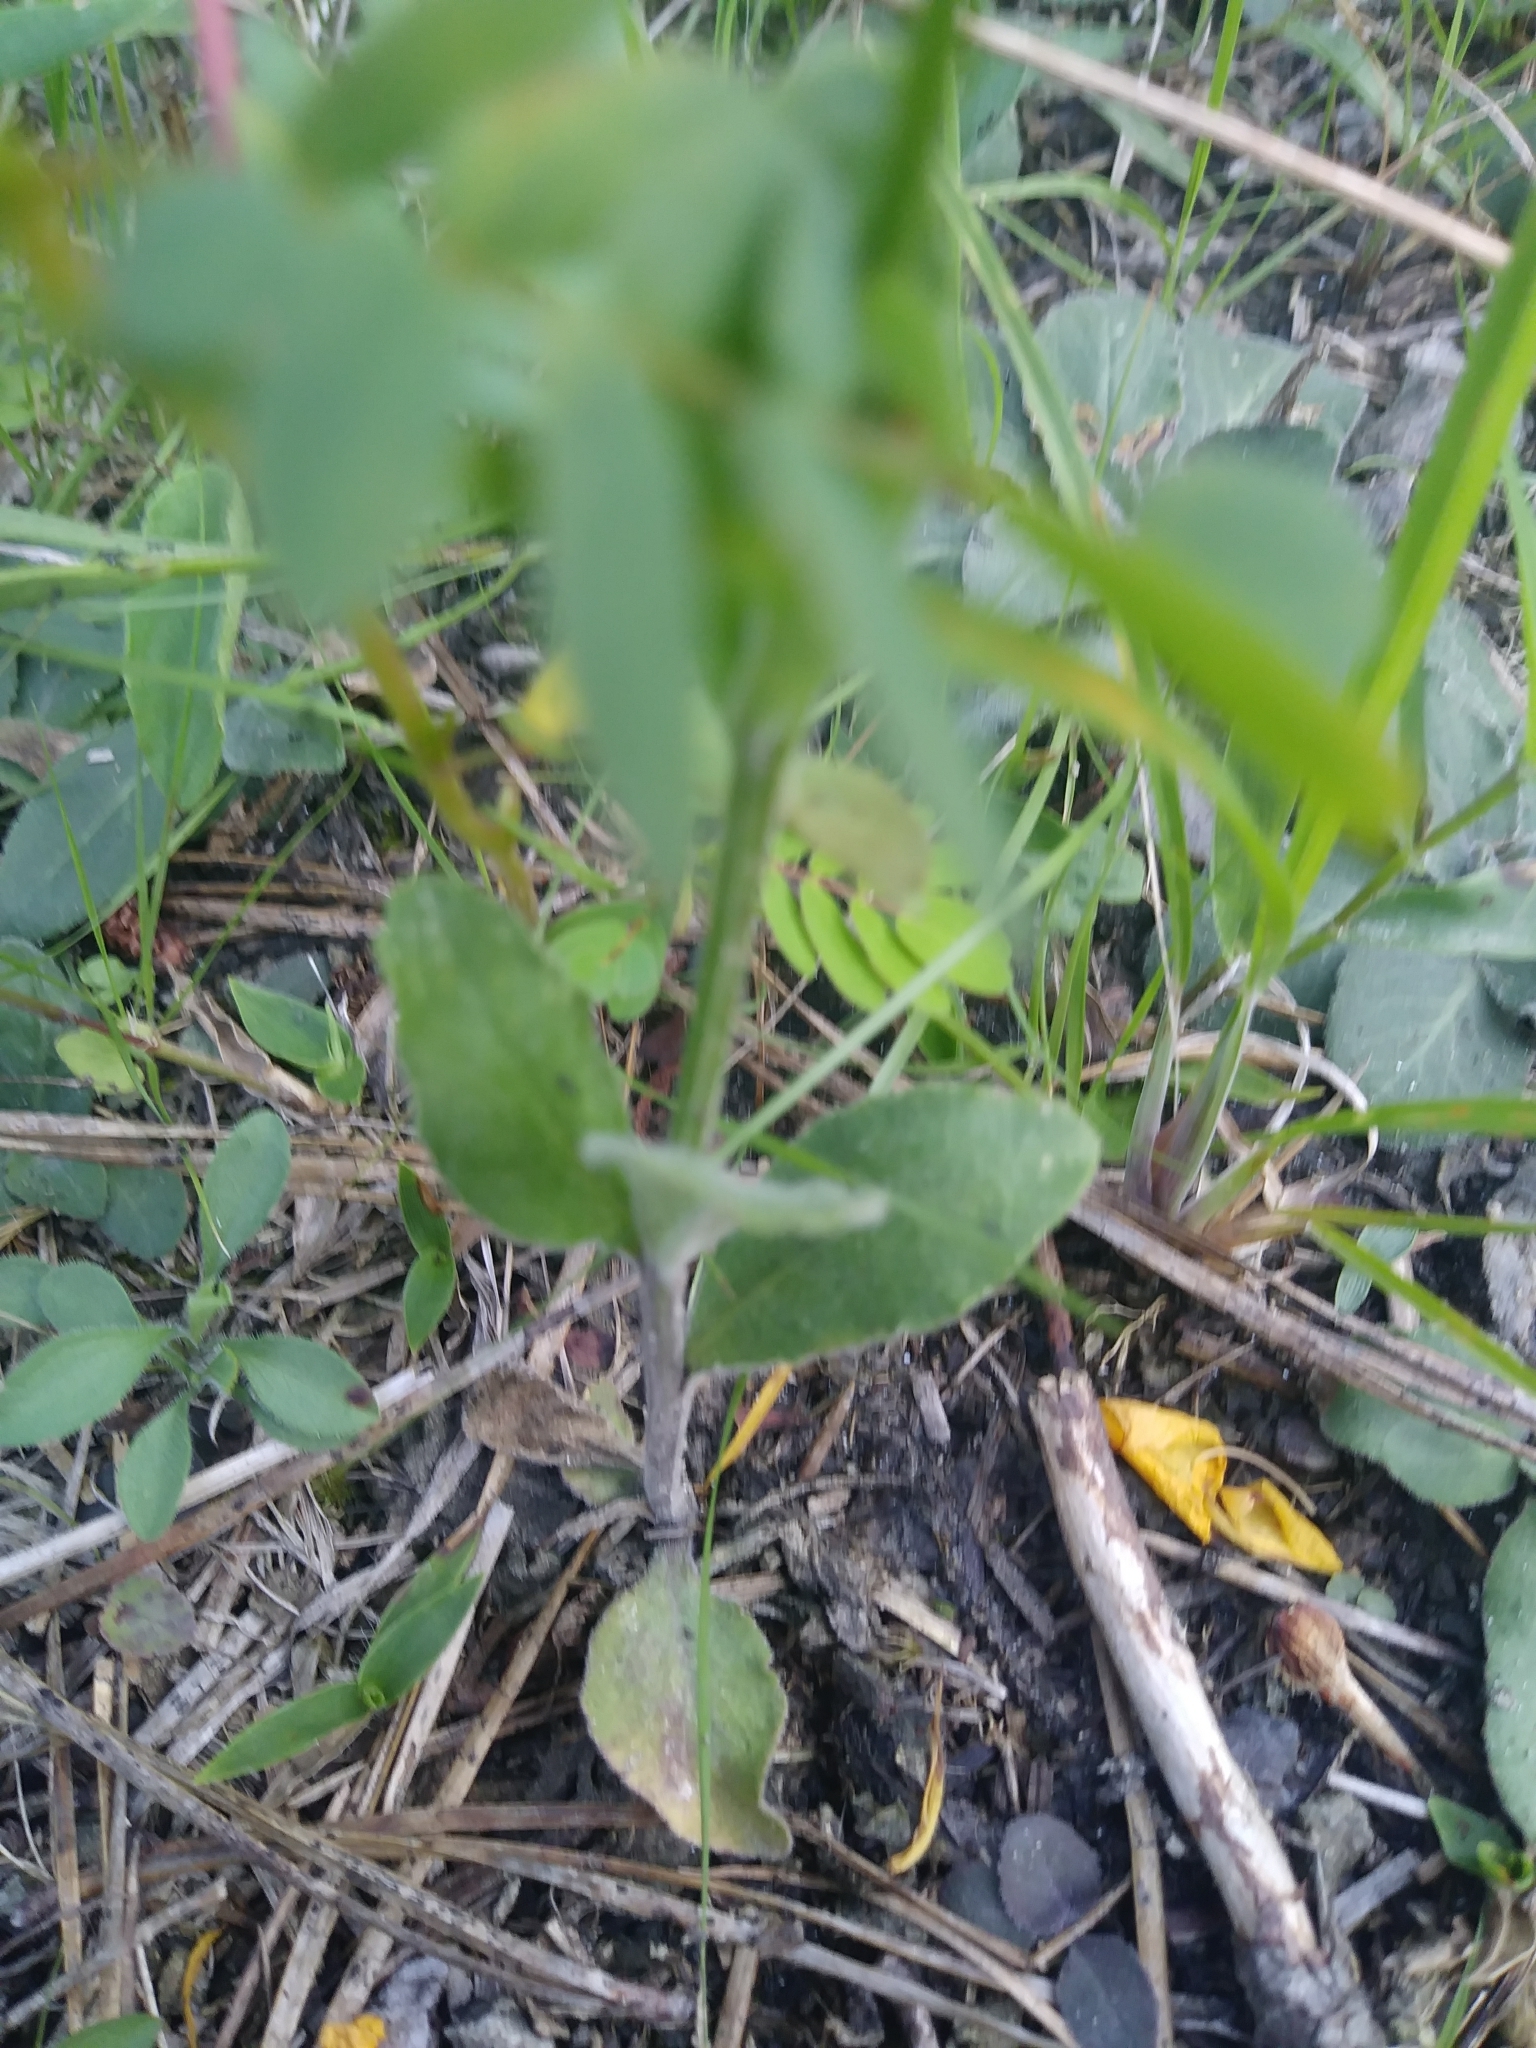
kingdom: Plantae
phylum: Tracheophyta
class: Magnoliopsida
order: Asterales
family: Campanulaceae
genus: Lobelia
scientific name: Lobelia spicata
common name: Pale-spike lobelia
